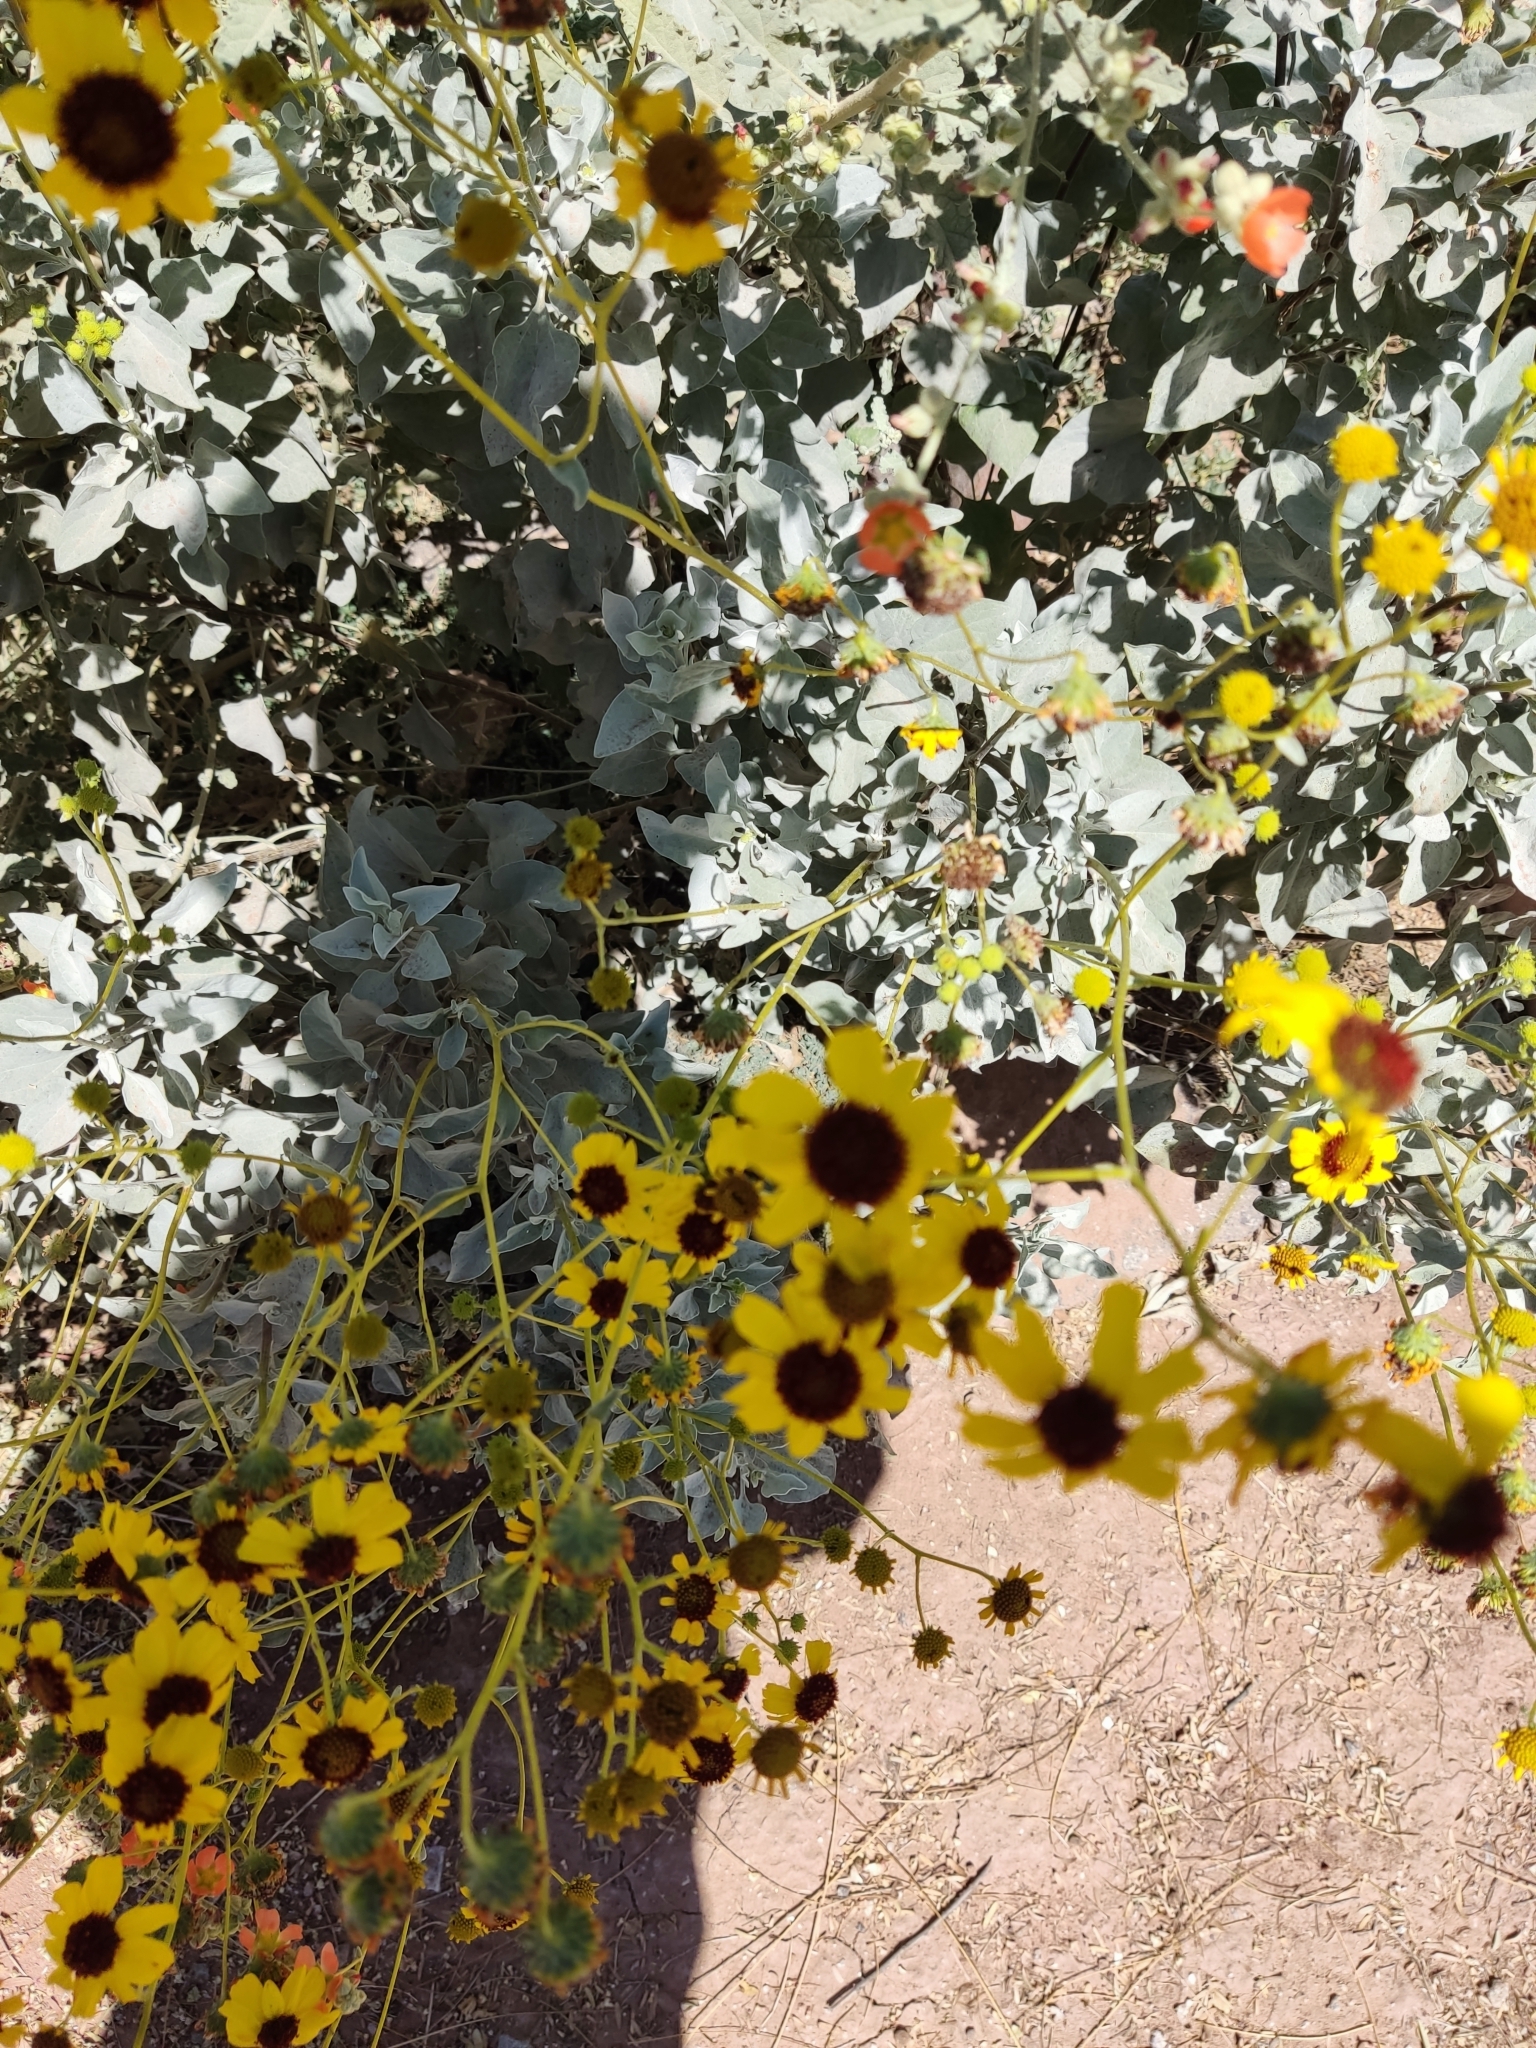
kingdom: Plantae
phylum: Tracheophyta
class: Magnoliopsida
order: Asterales
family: Asteraceae
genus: Encelia
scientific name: Encelia farinosa
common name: Brittlebush
